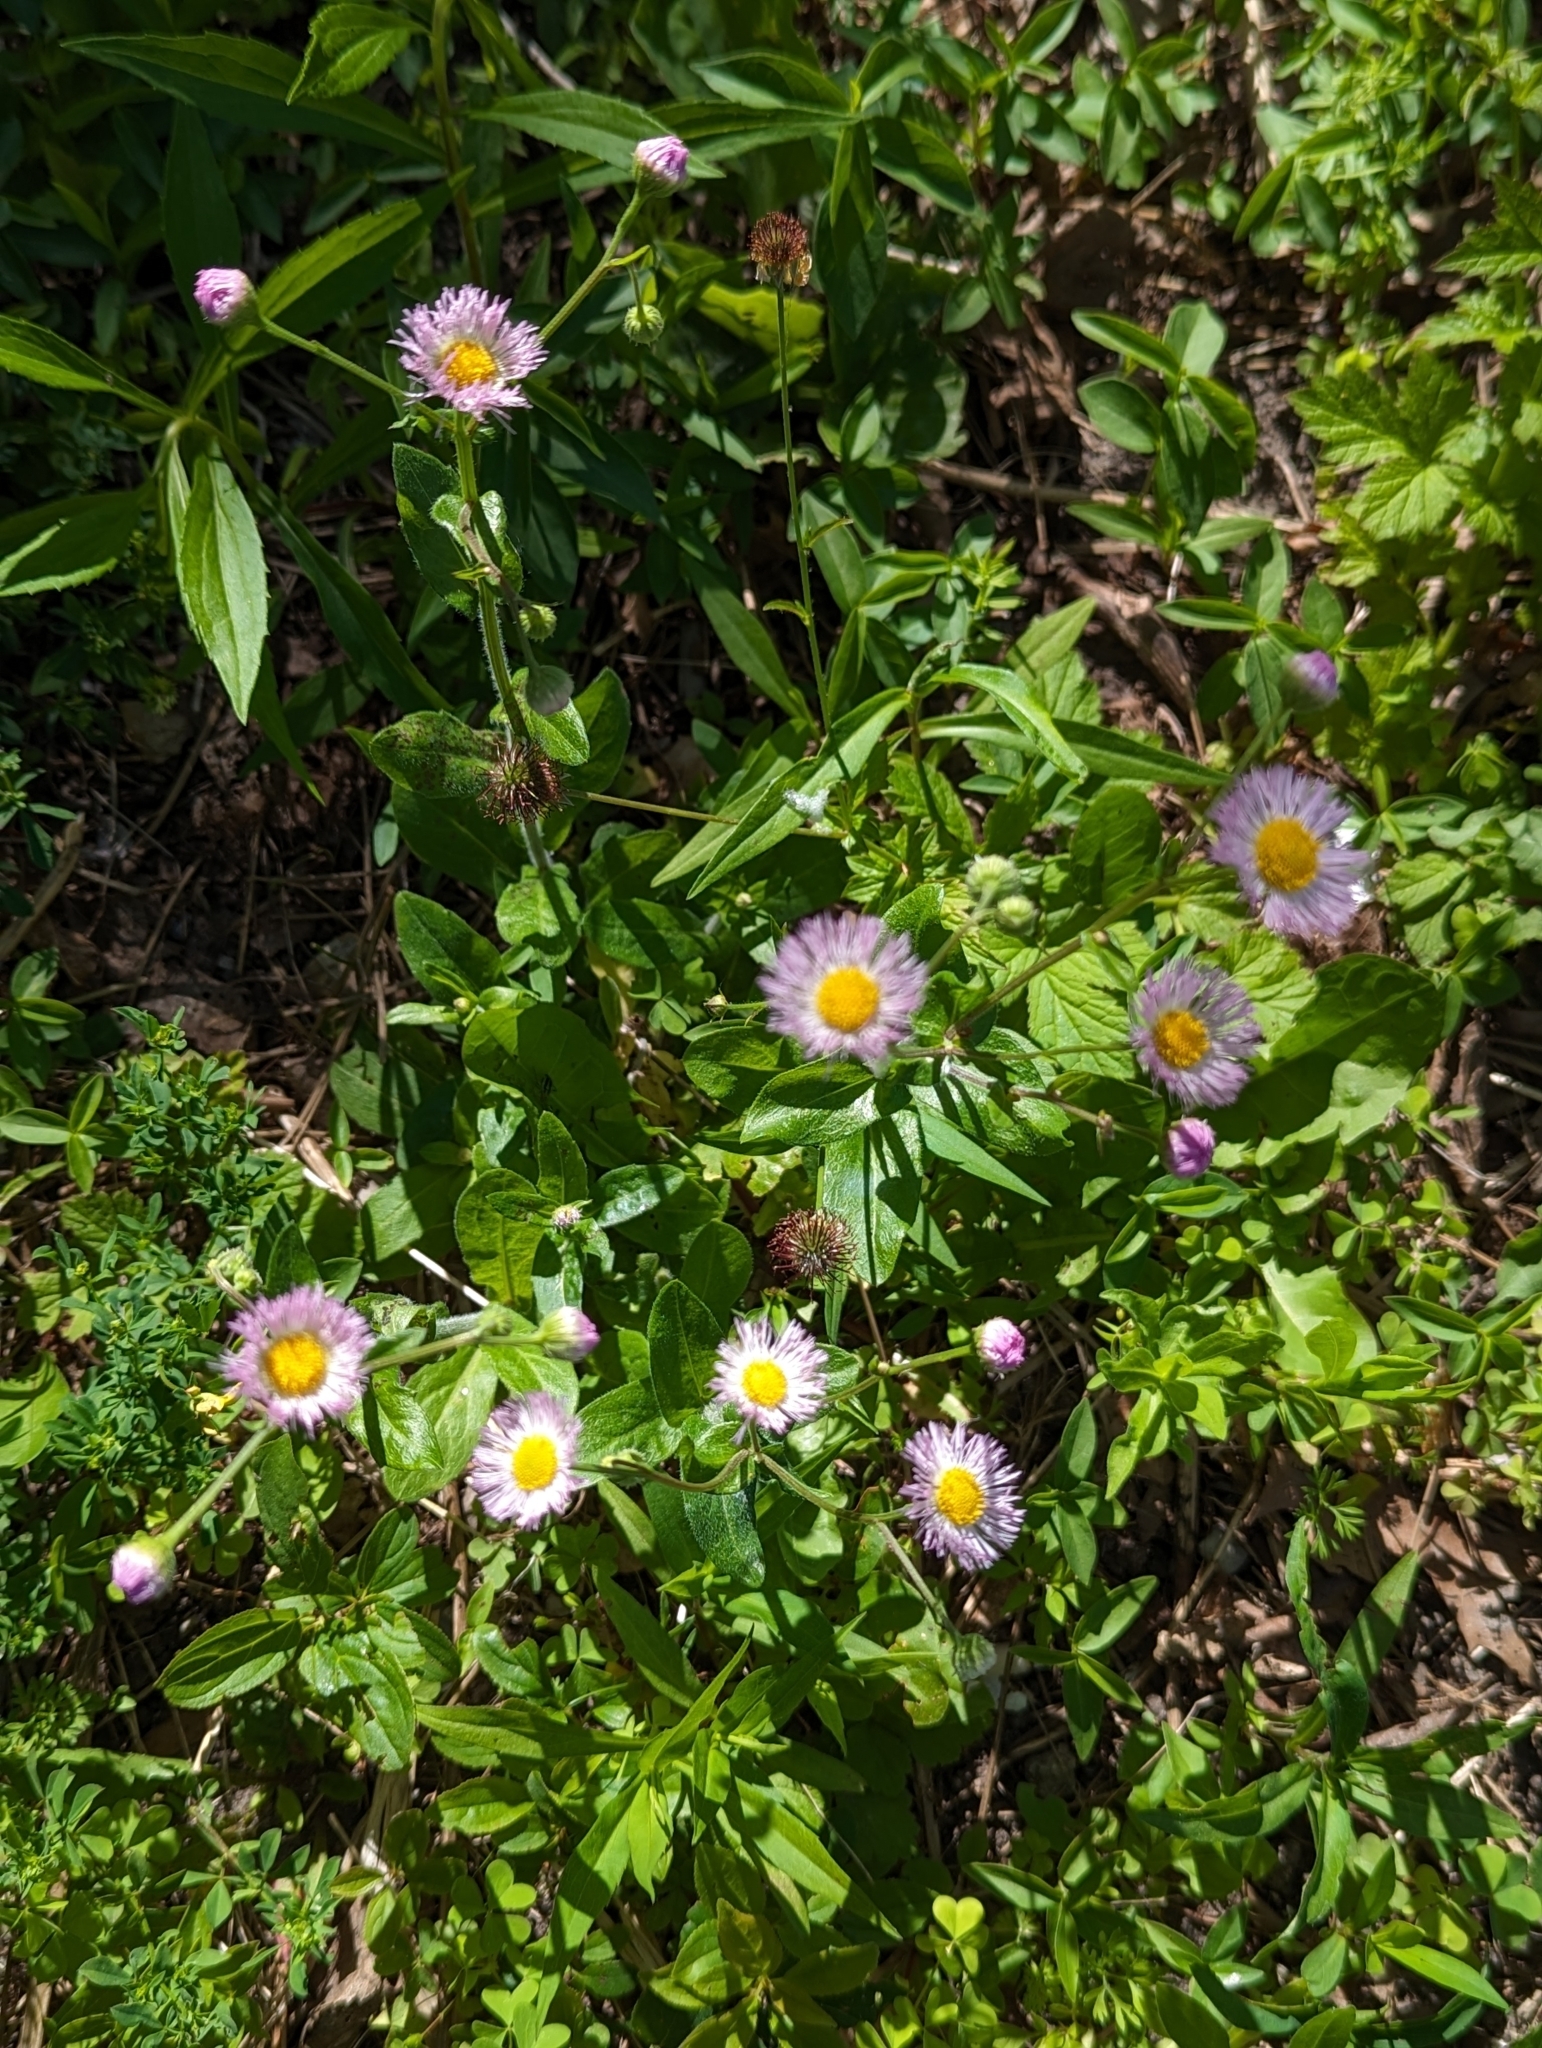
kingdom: Plantae
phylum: Tracheophyta
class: Magnoliopsida
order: Asterales
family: Asteraceae
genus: Erigeron
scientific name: Erigeron philadelphicus
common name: Robin's-plantain
